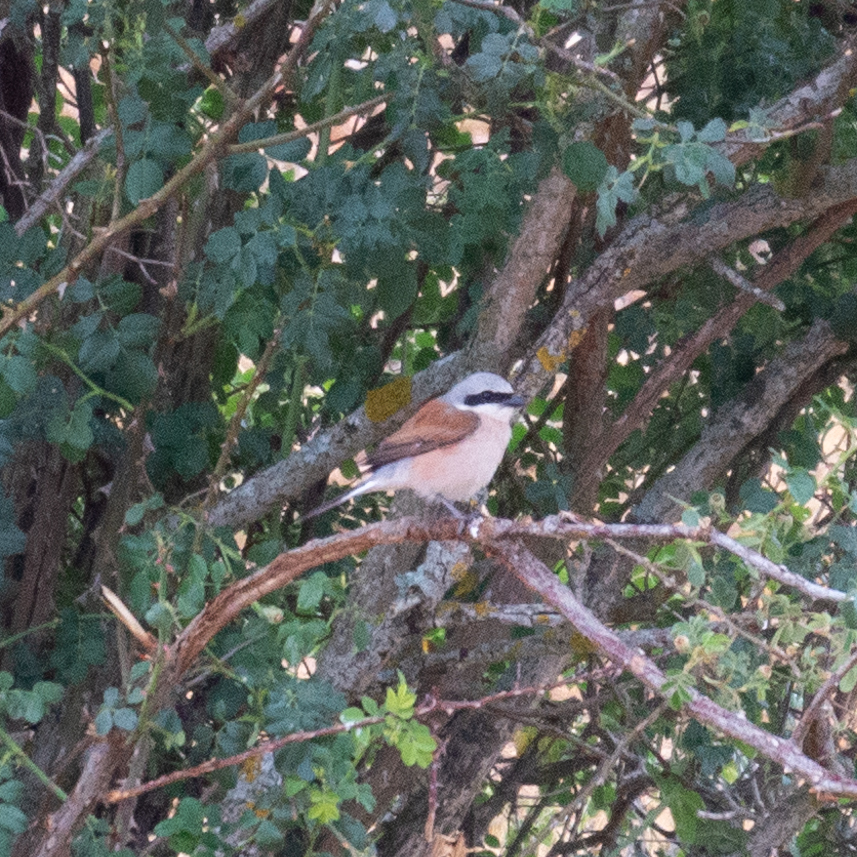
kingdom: Animalia
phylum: Chordata
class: Aves
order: Passeriformes
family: Laniidae
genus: Lanius
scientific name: Lanius collurio
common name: Red-backed shrike
